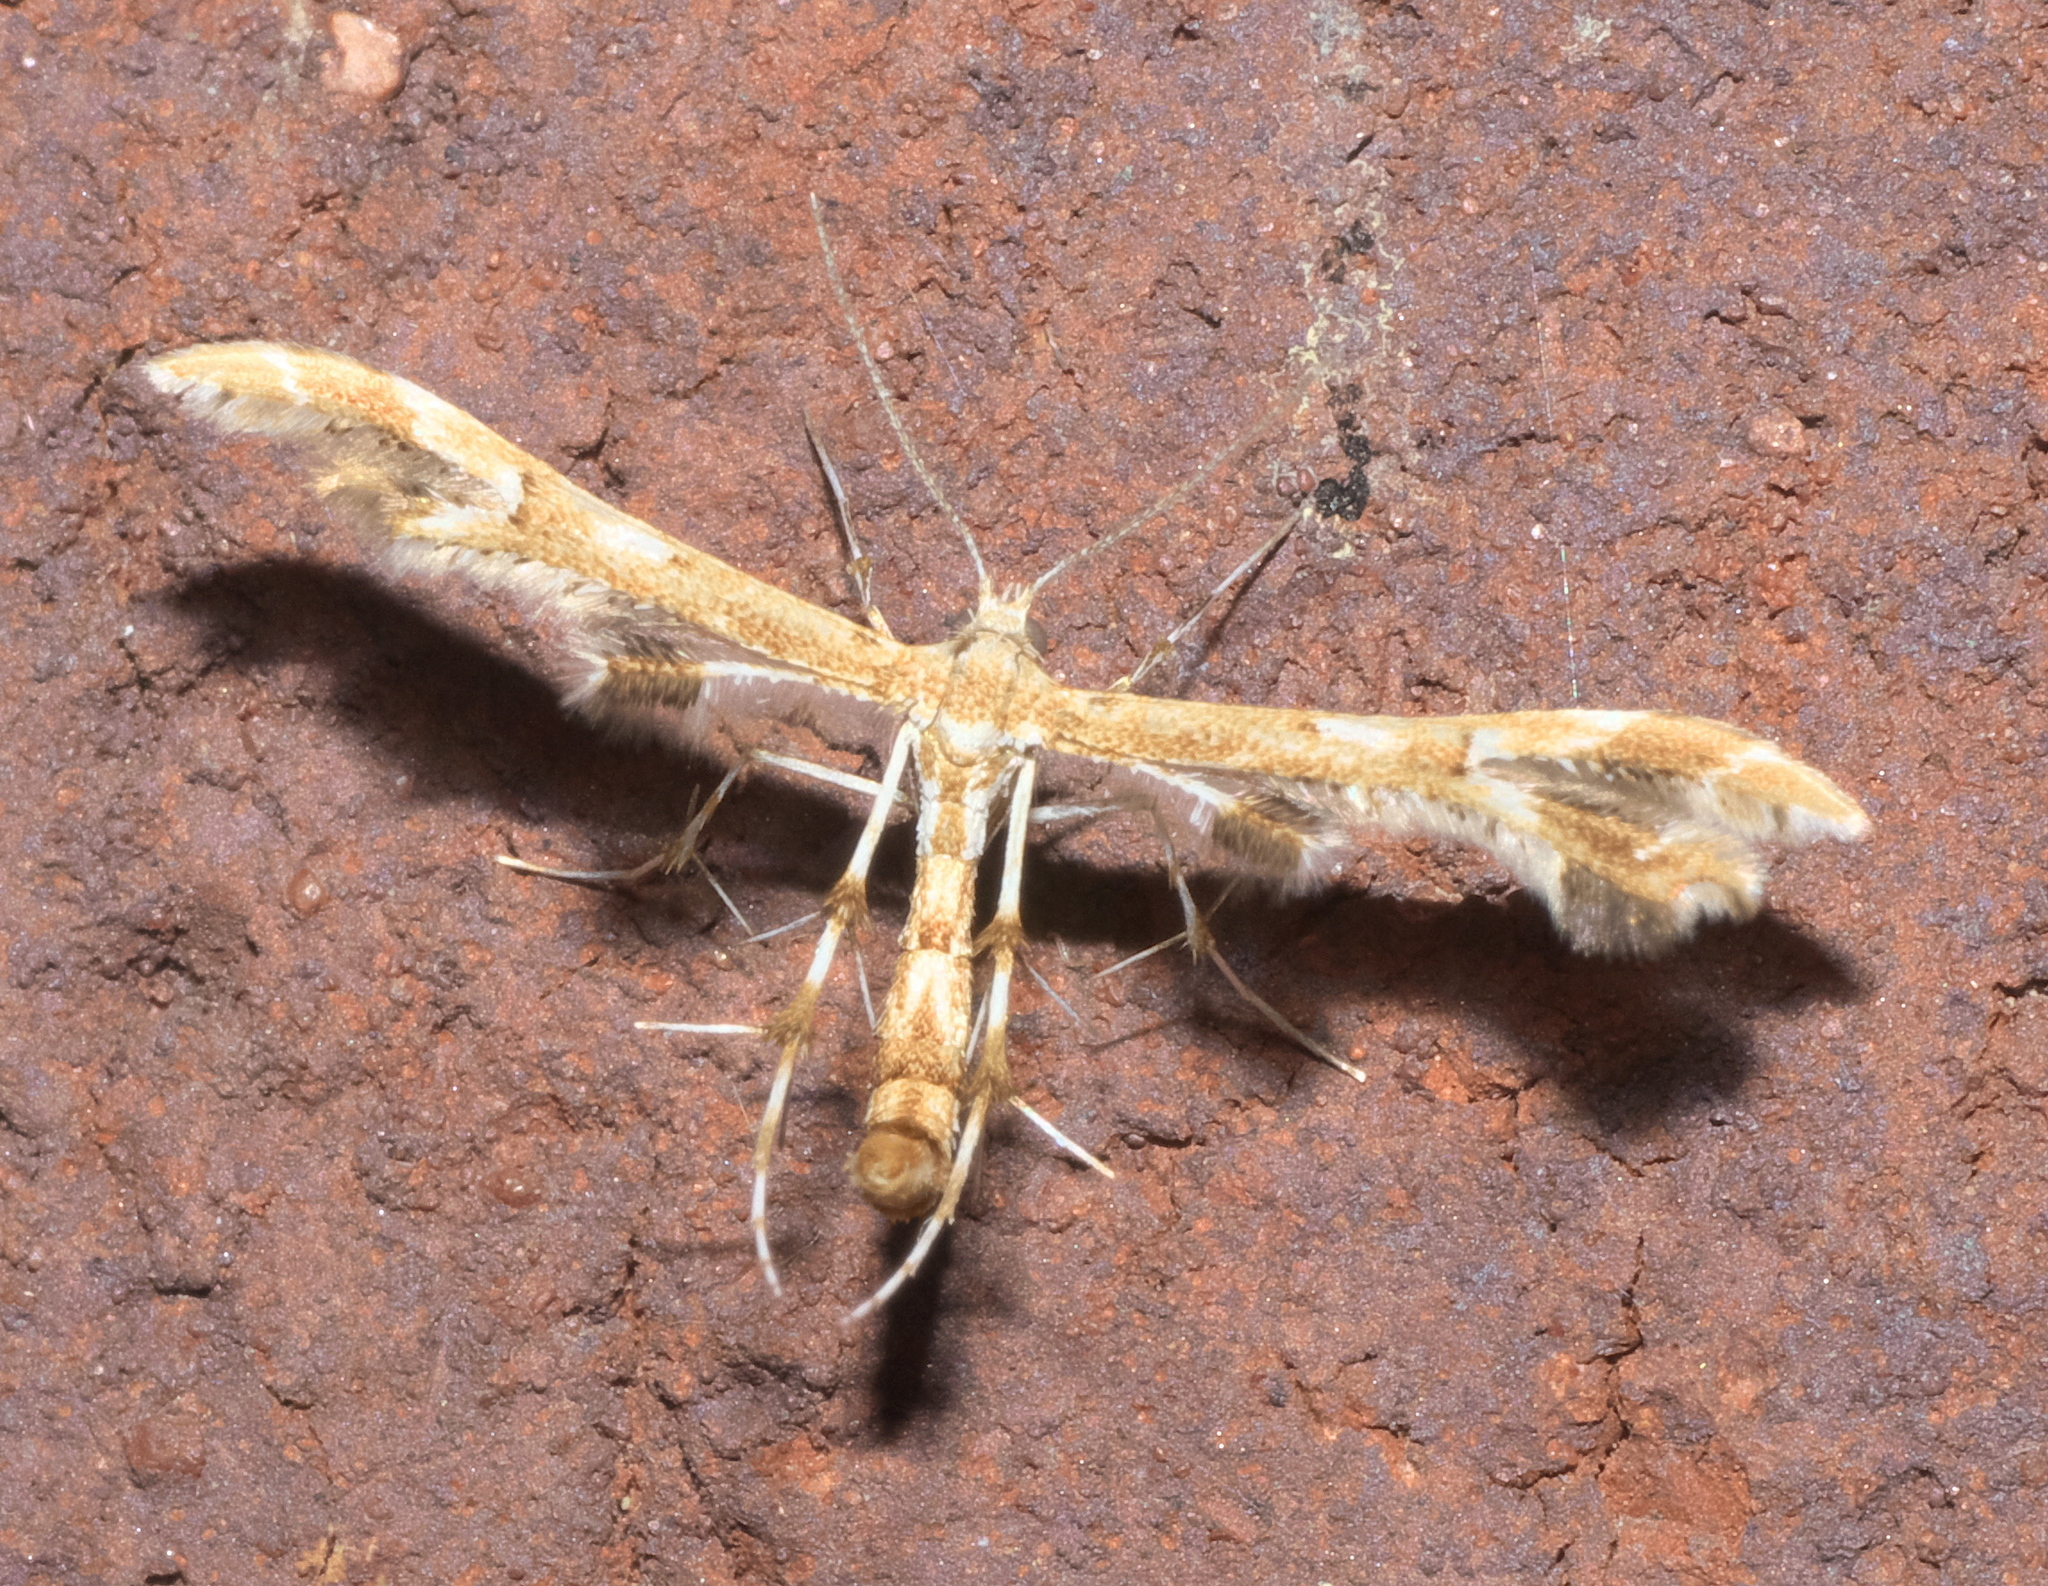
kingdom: Animalia
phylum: Arthropoda
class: Insecta
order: Lepidoptera
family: Pterophoridae
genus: Geina
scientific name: Geina periscelidactylus
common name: Grape plume moth
